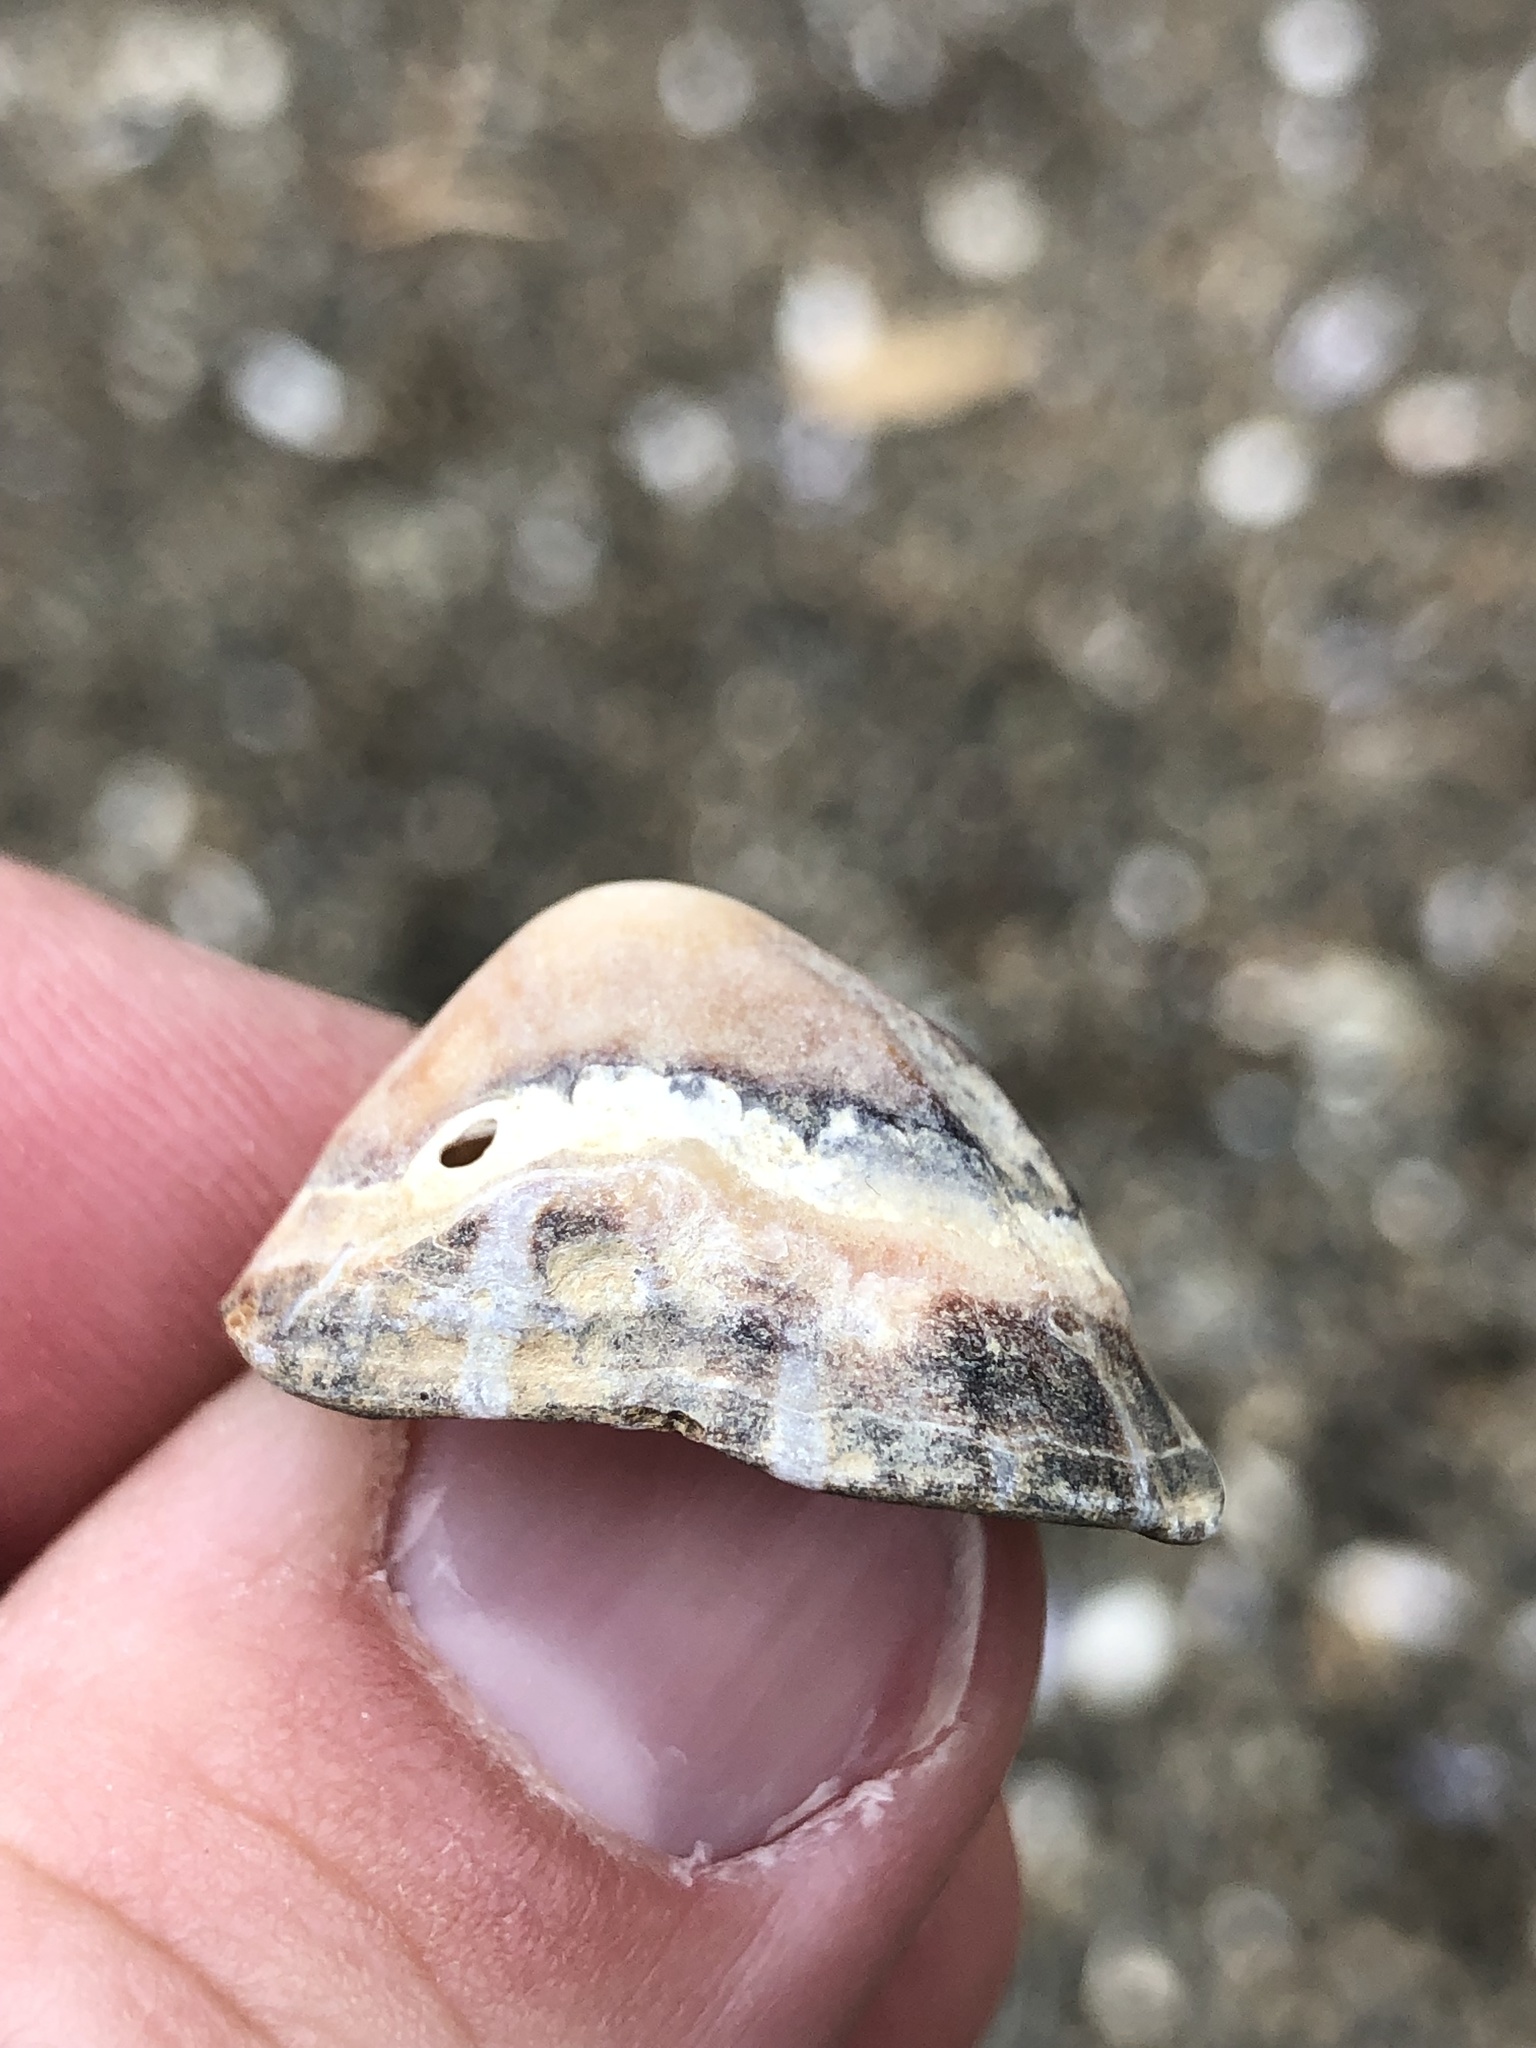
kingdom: Animalia
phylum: Mollusca
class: Gastropoda
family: Nacellidae
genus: Cellana
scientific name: Cellana ornata
